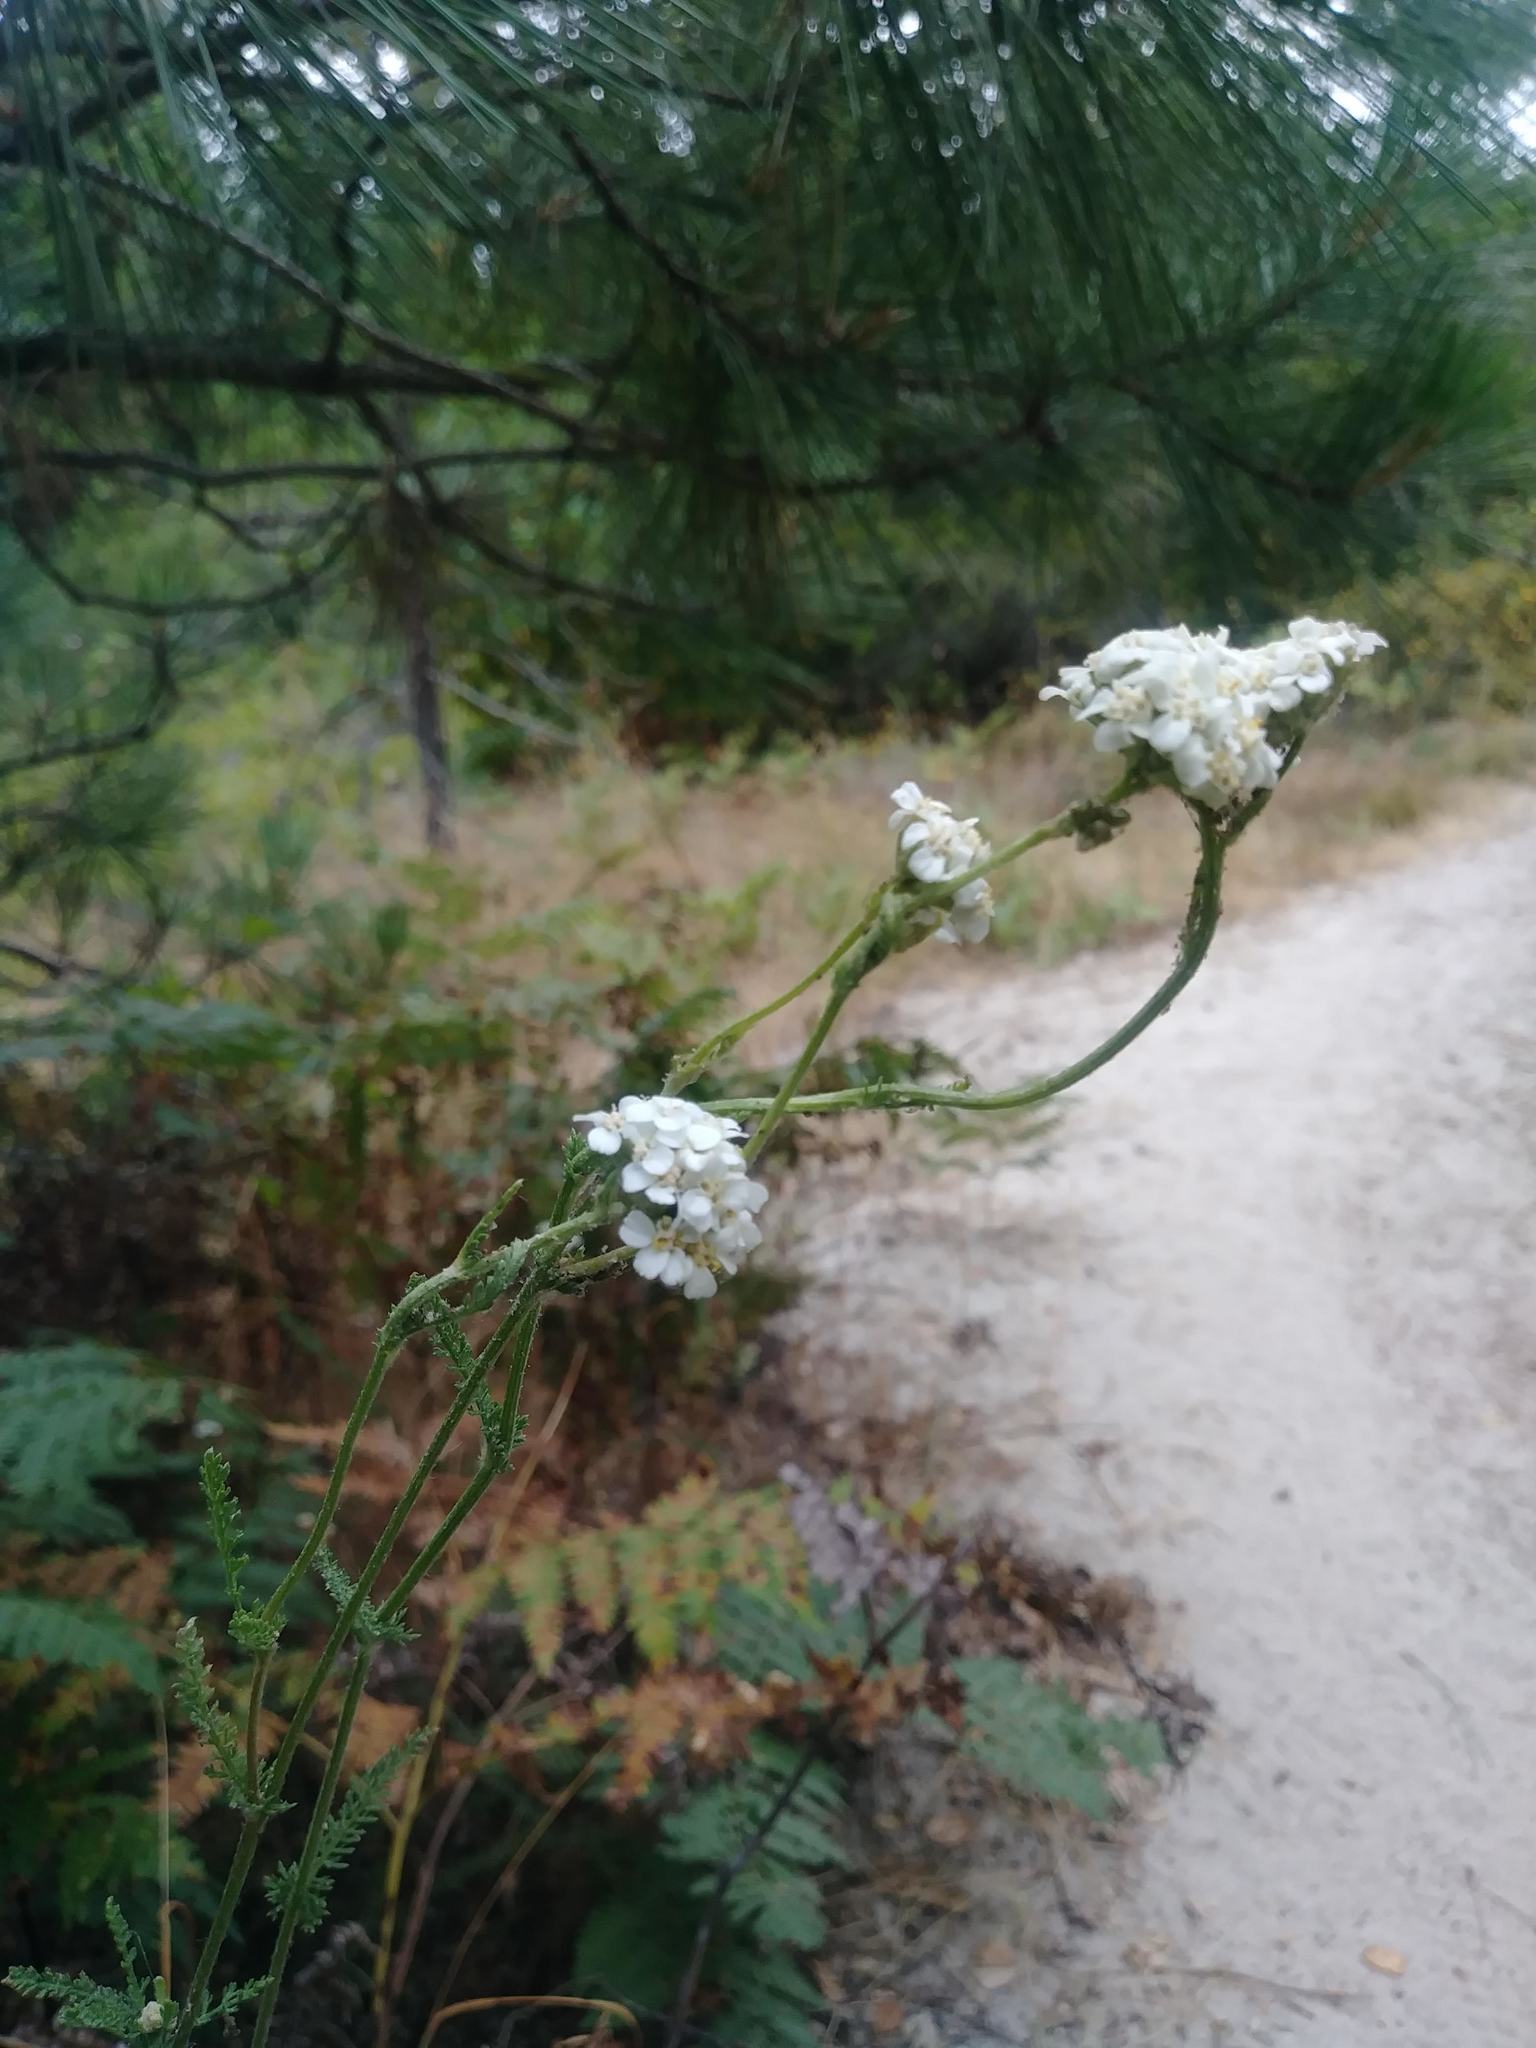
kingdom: Plantae
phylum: Tracheophyta
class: Magnoliopsida
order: Asterales
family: Asteraceae
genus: Achillea
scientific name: Achillea millefolium
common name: Yarrow
